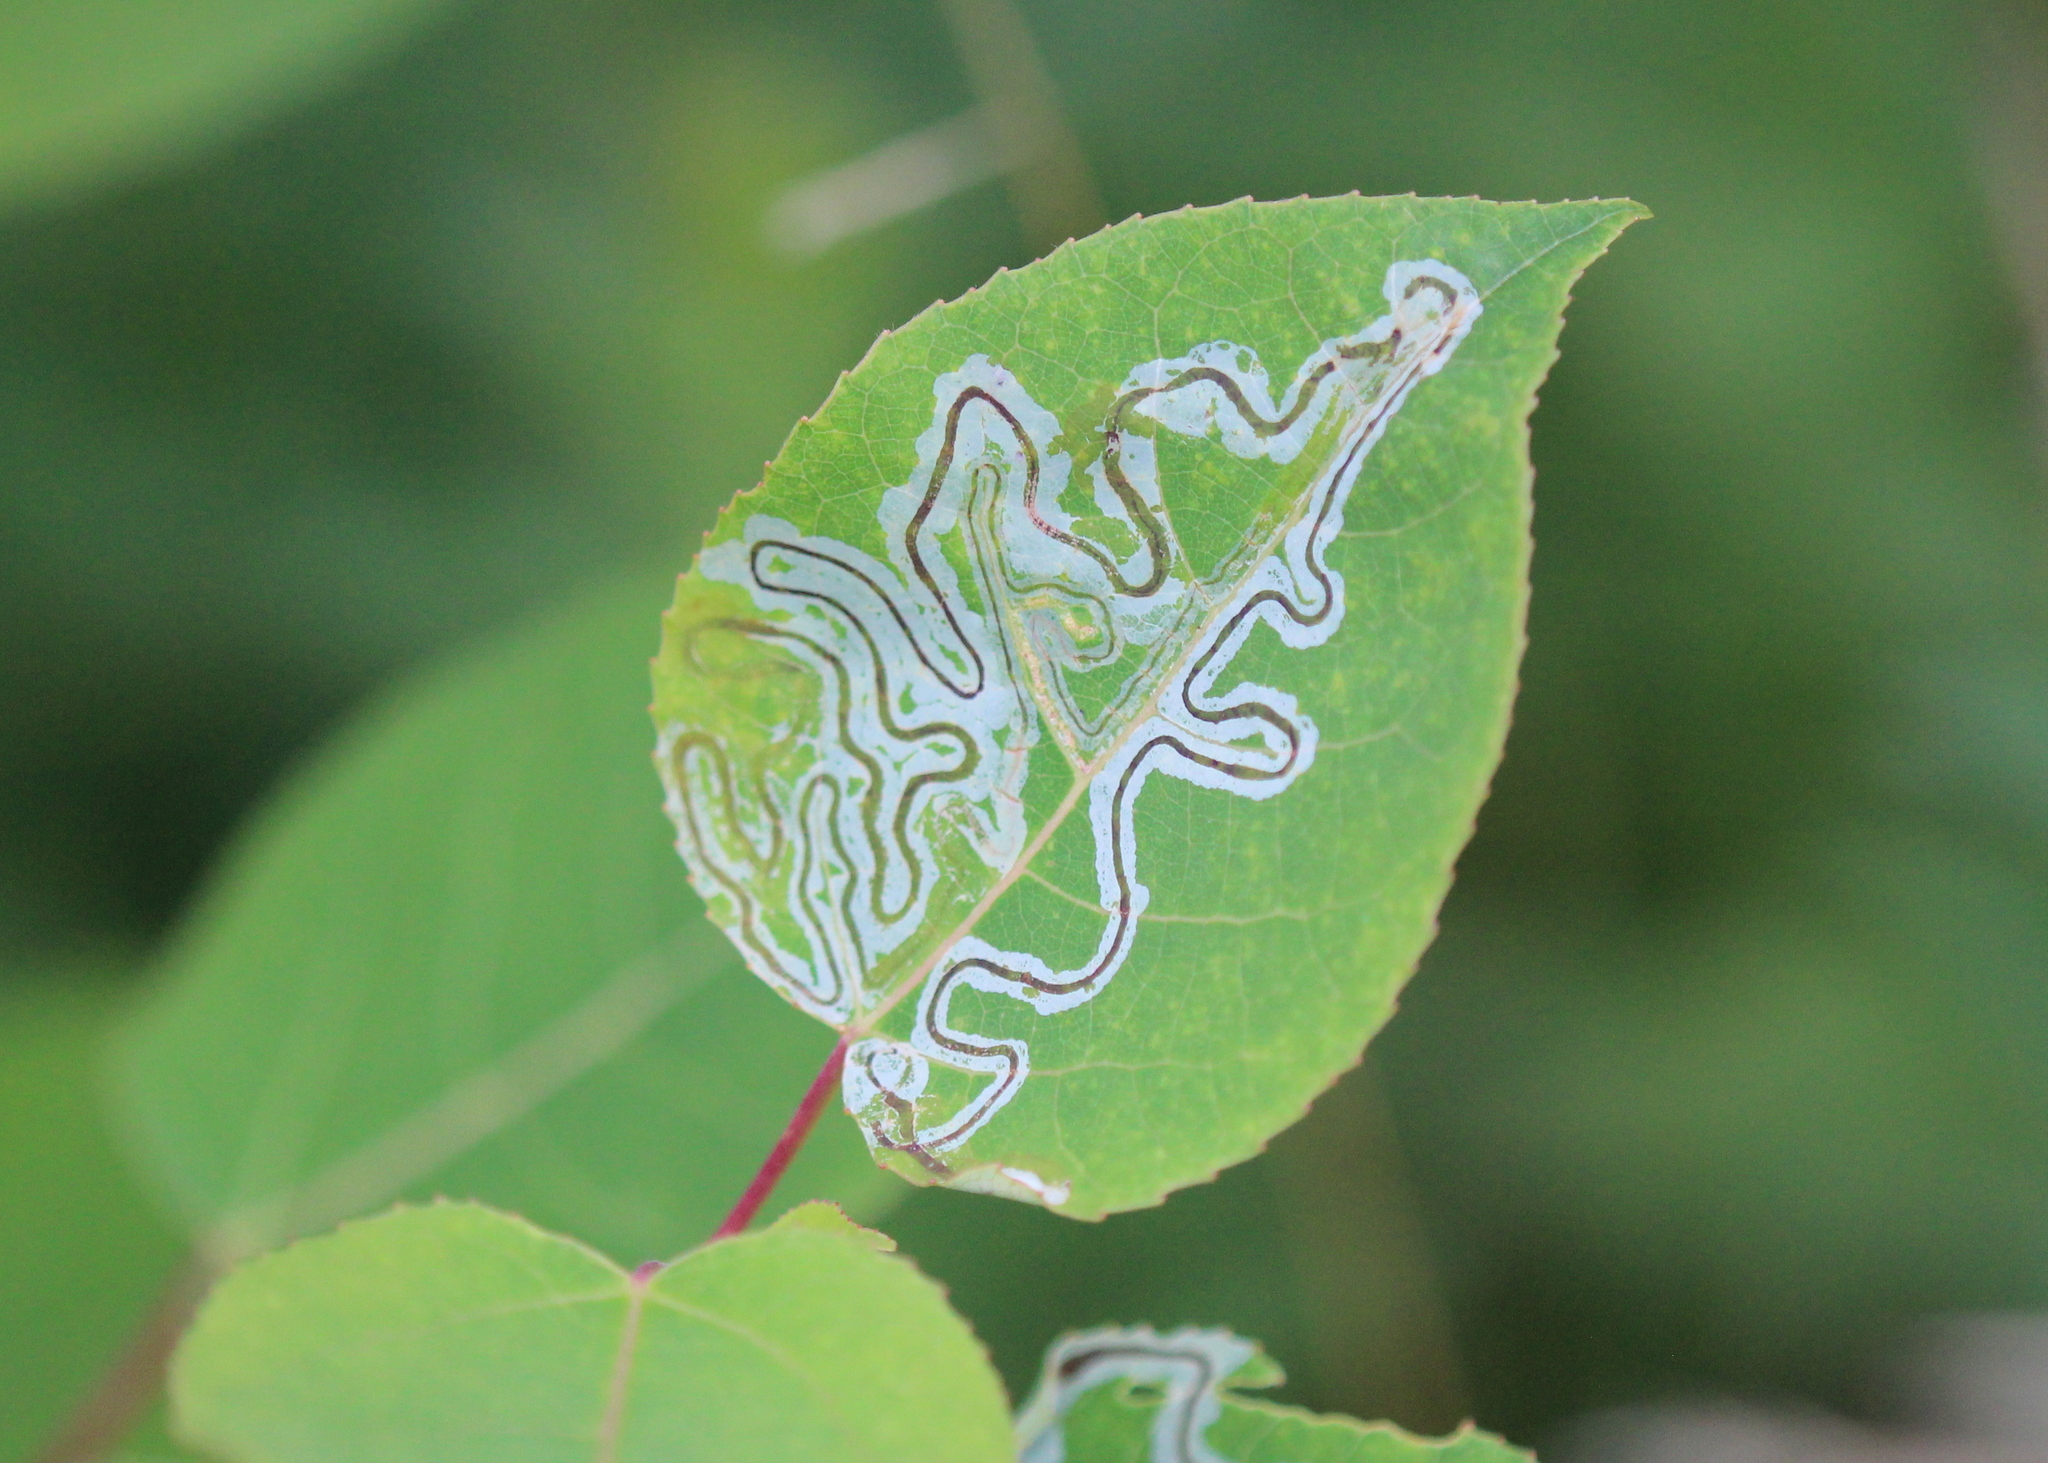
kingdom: Animalia
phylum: Arthropoda
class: Insecta
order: Lepidoptera
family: Gracillariidae
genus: Phyllocnistis
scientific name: Phyllocnistis populiella
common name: Aspen serpentine leafminer moth
